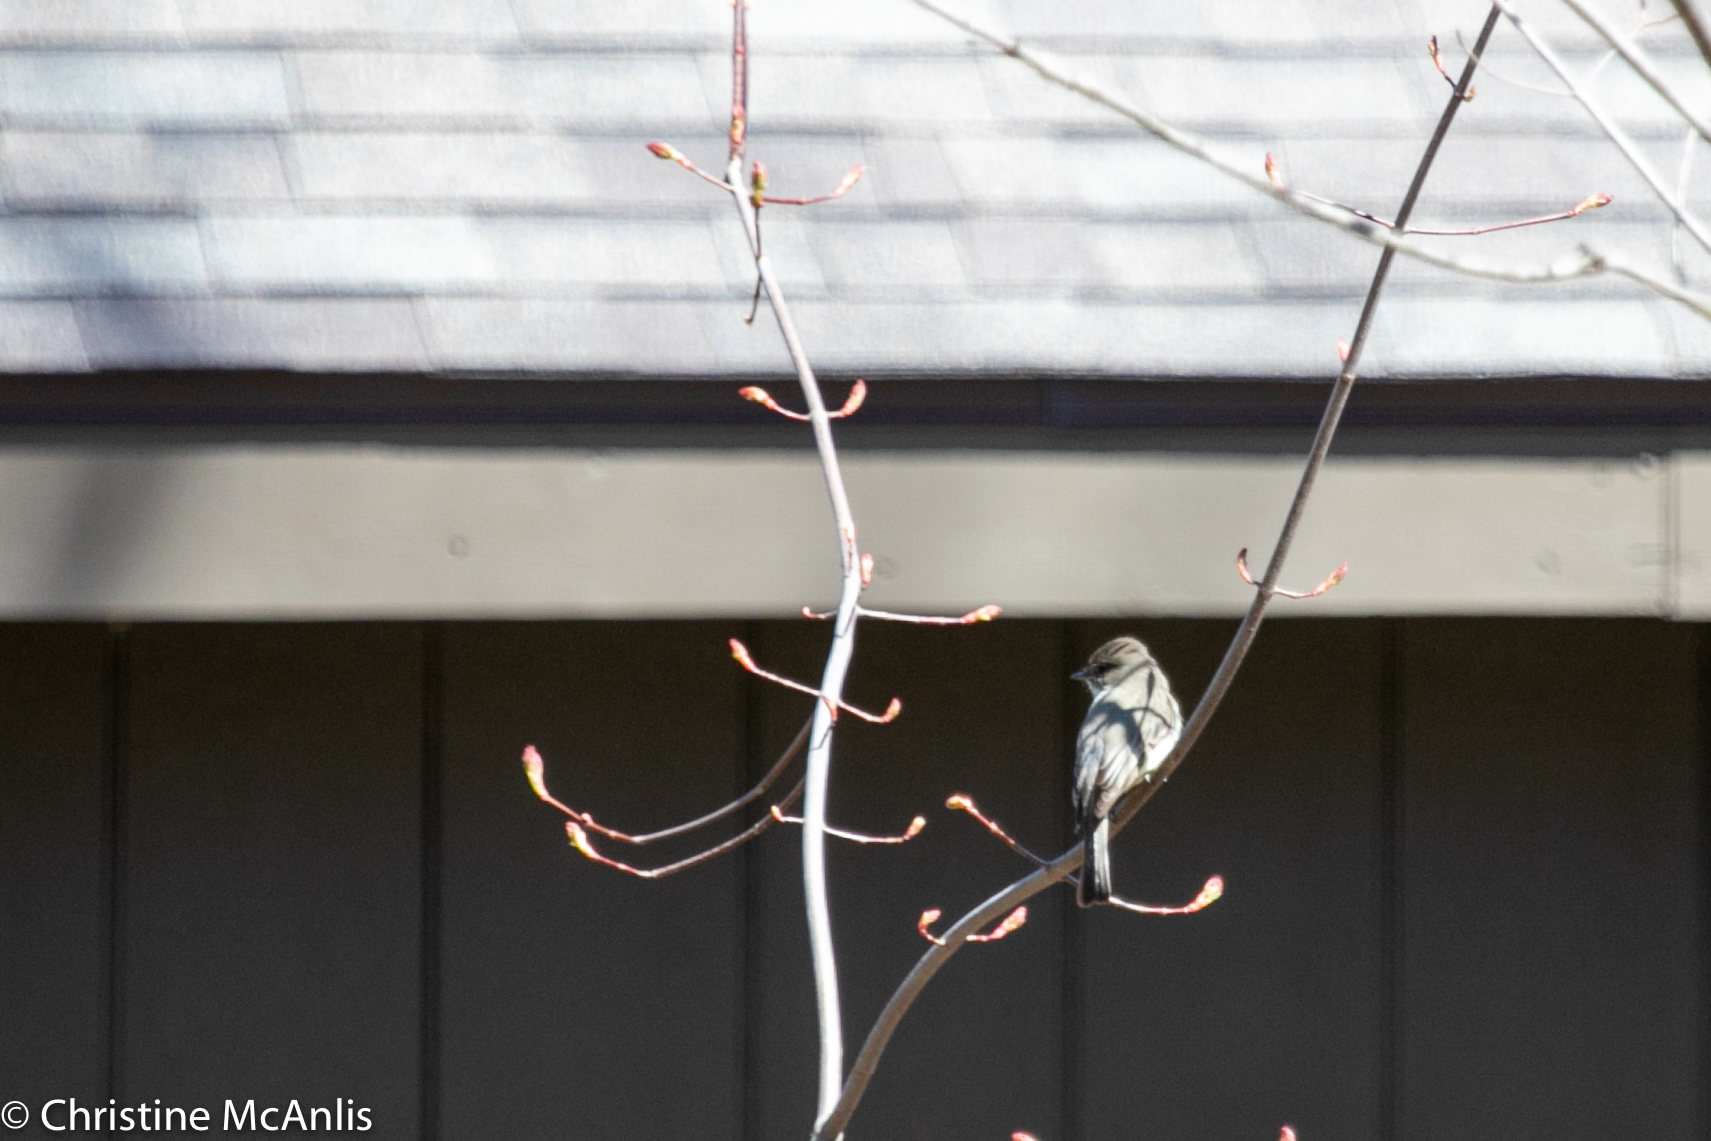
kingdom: Animalia
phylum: Chordata
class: Aves
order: Passeriformes
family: Tyrannidae
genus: Sayornis
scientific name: Sayornis phoebe
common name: Eastern phoebe
